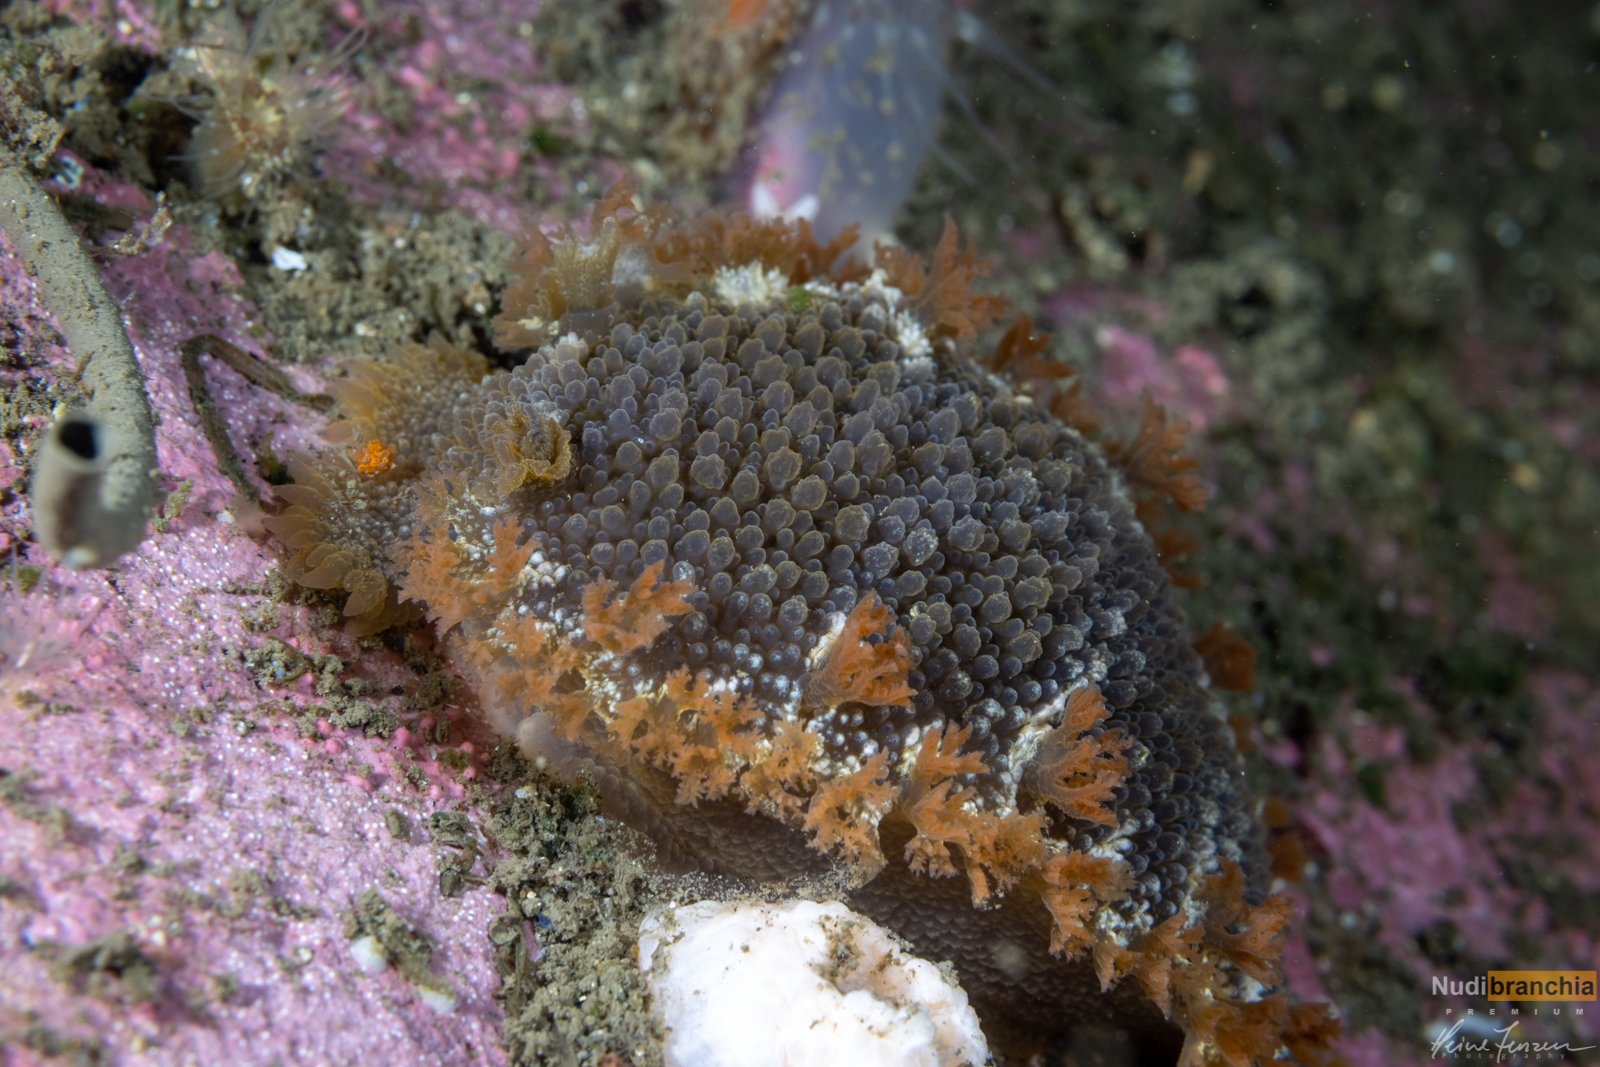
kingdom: Animalia
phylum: Mollusca
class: Gastropoda
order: Nudibranchia
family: Tritoniidae
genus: Tritonia
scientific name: Tritonia hombergii
